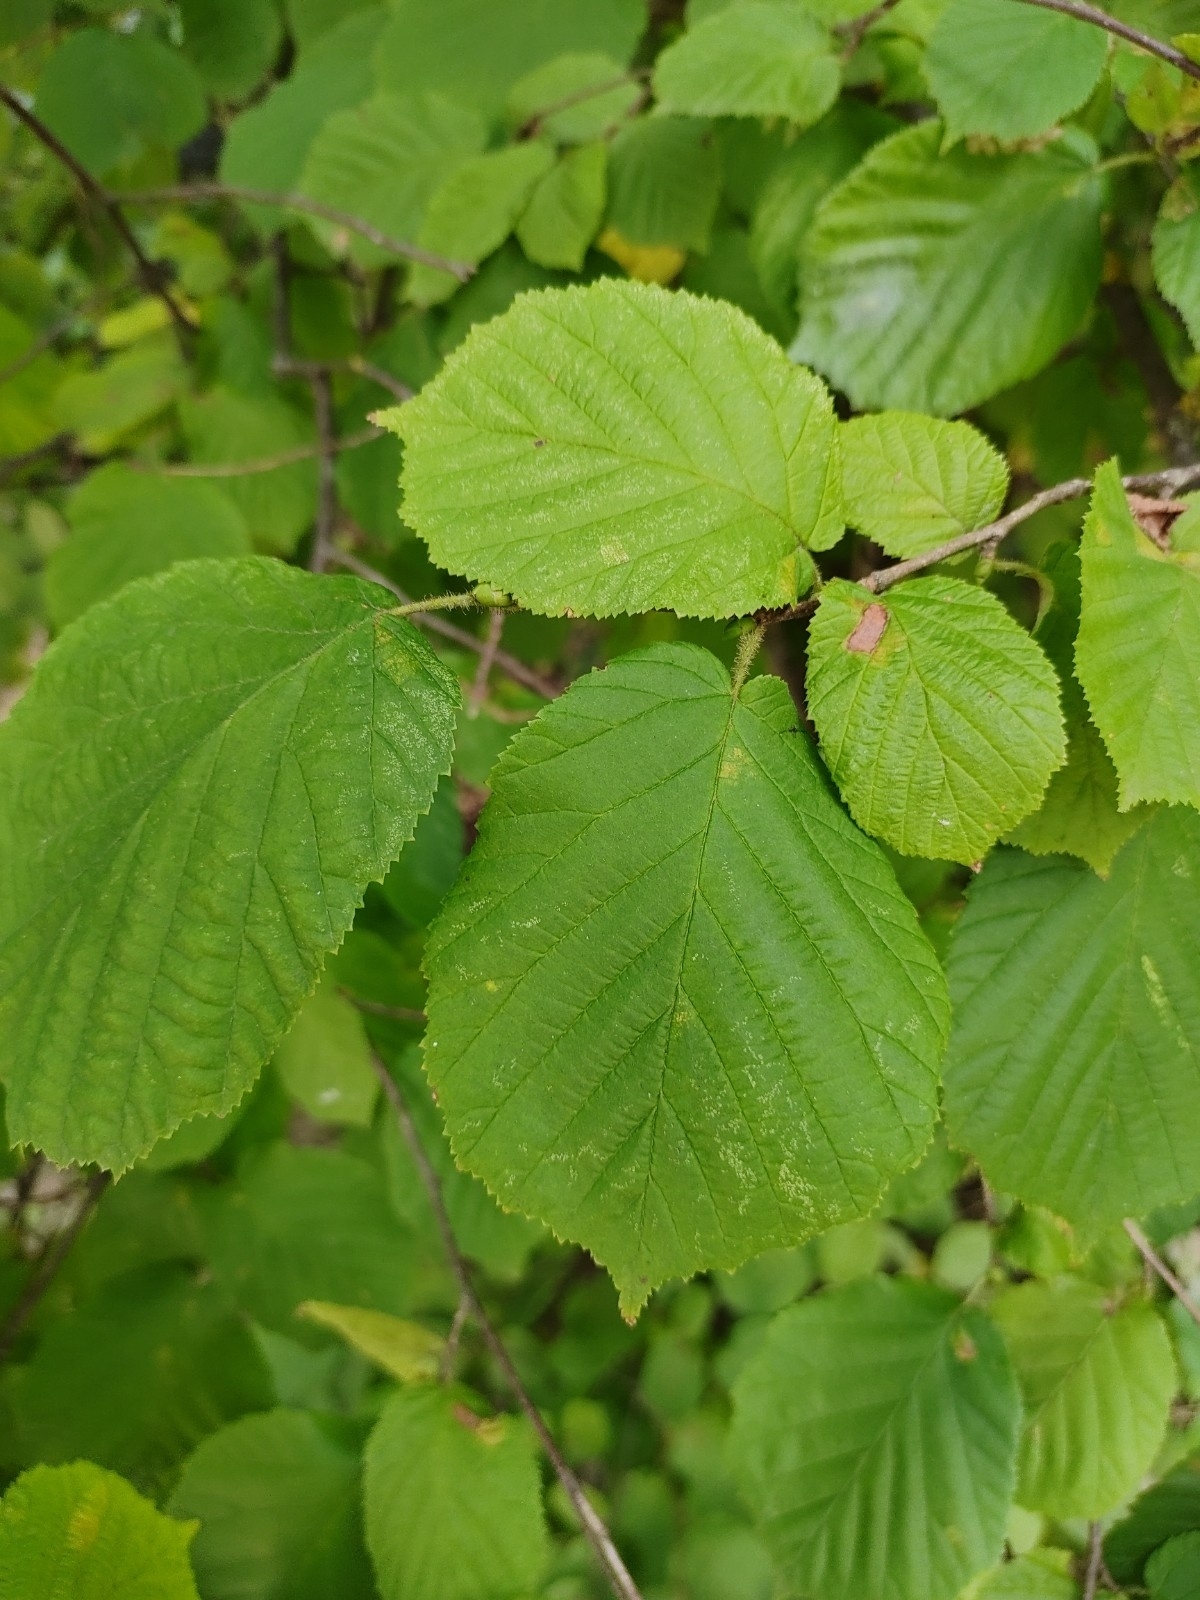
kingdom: Plantae
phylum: Tracheophyta
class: Magnoliopsida
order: Fagales
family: Betulaceae
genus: Corylus
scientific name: Corylus avellana
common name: European hazel
